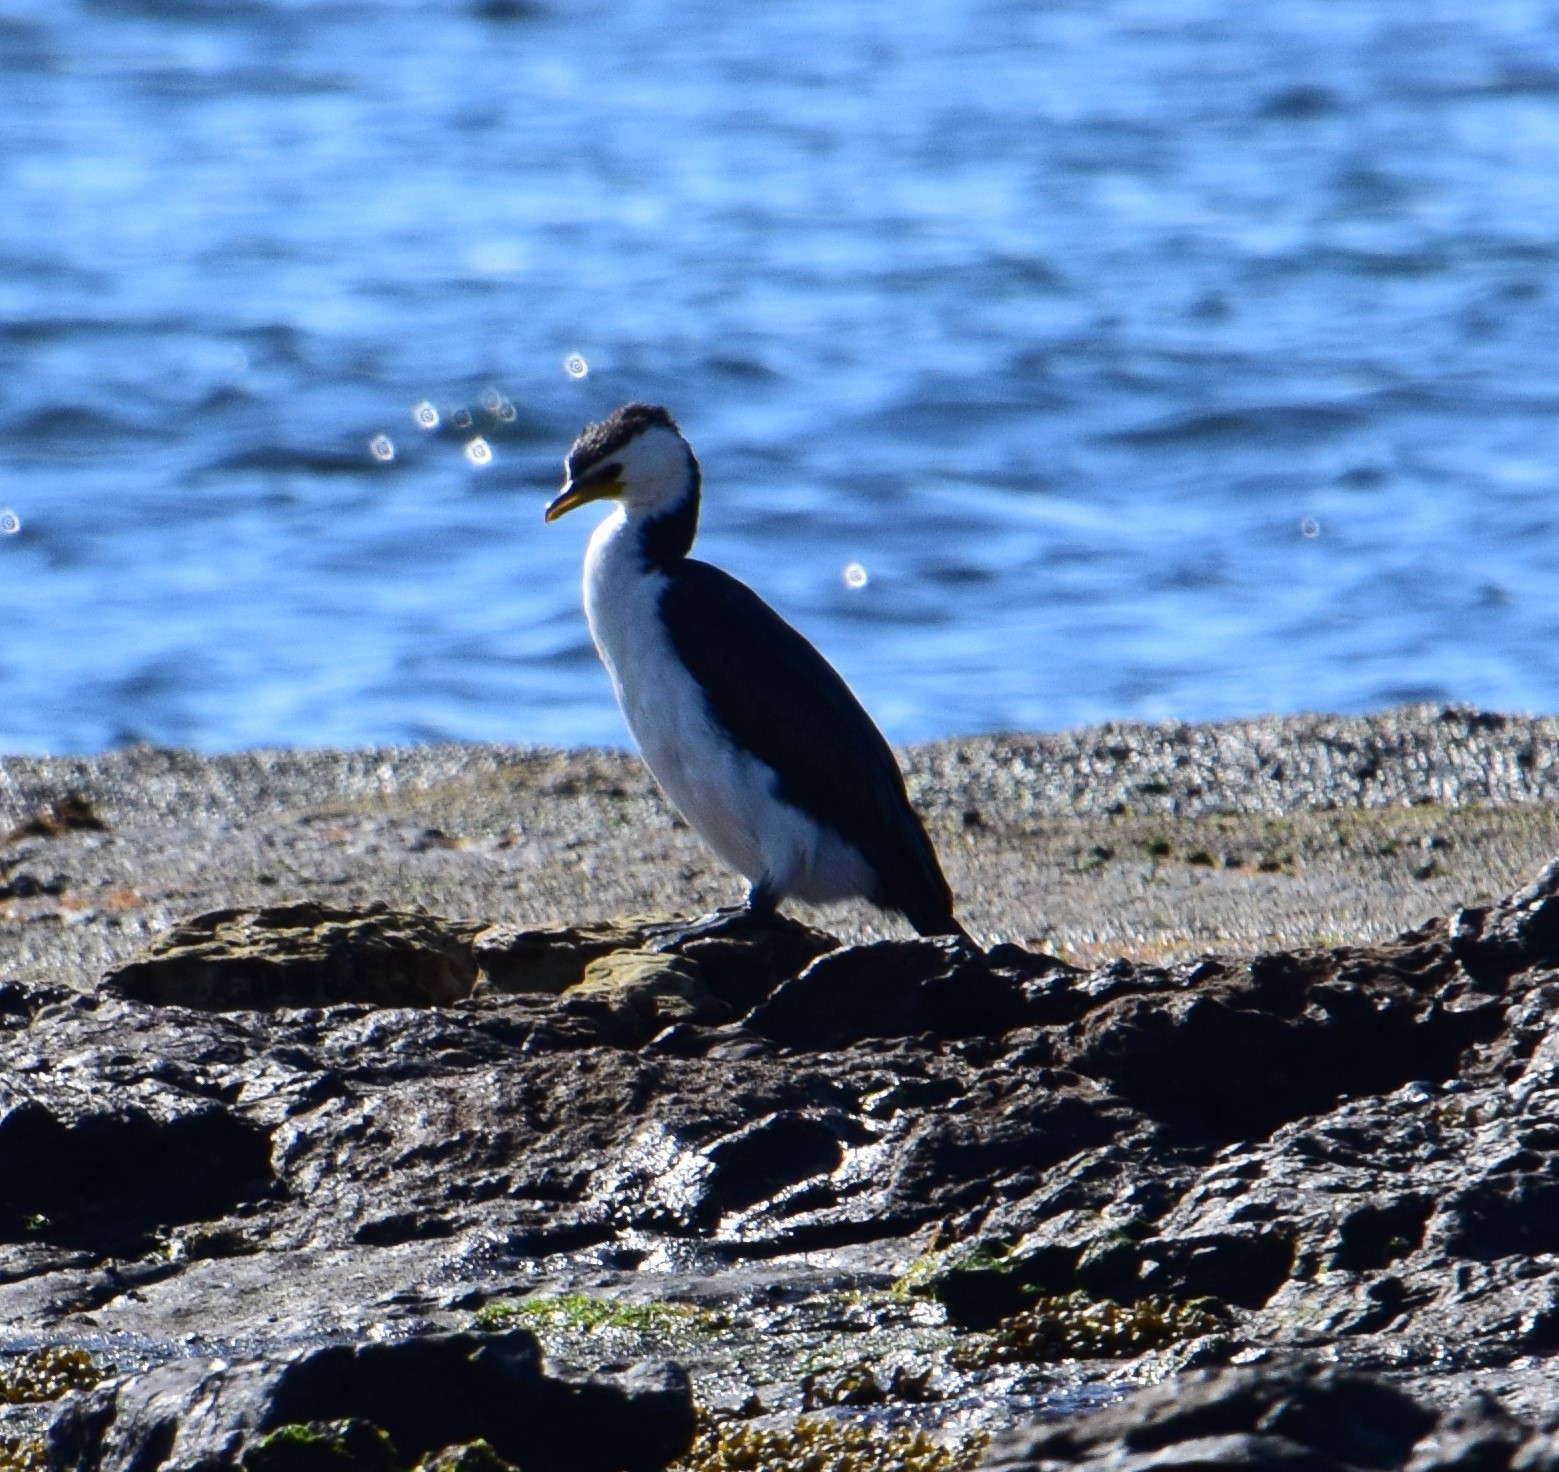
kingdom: Animalia
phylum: Chordata
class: Aves
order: Suliformes
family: Phalacrocoracidae
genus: Microcarbo
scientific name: Microcarbo melanoleucos
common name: Little pied cormorant
